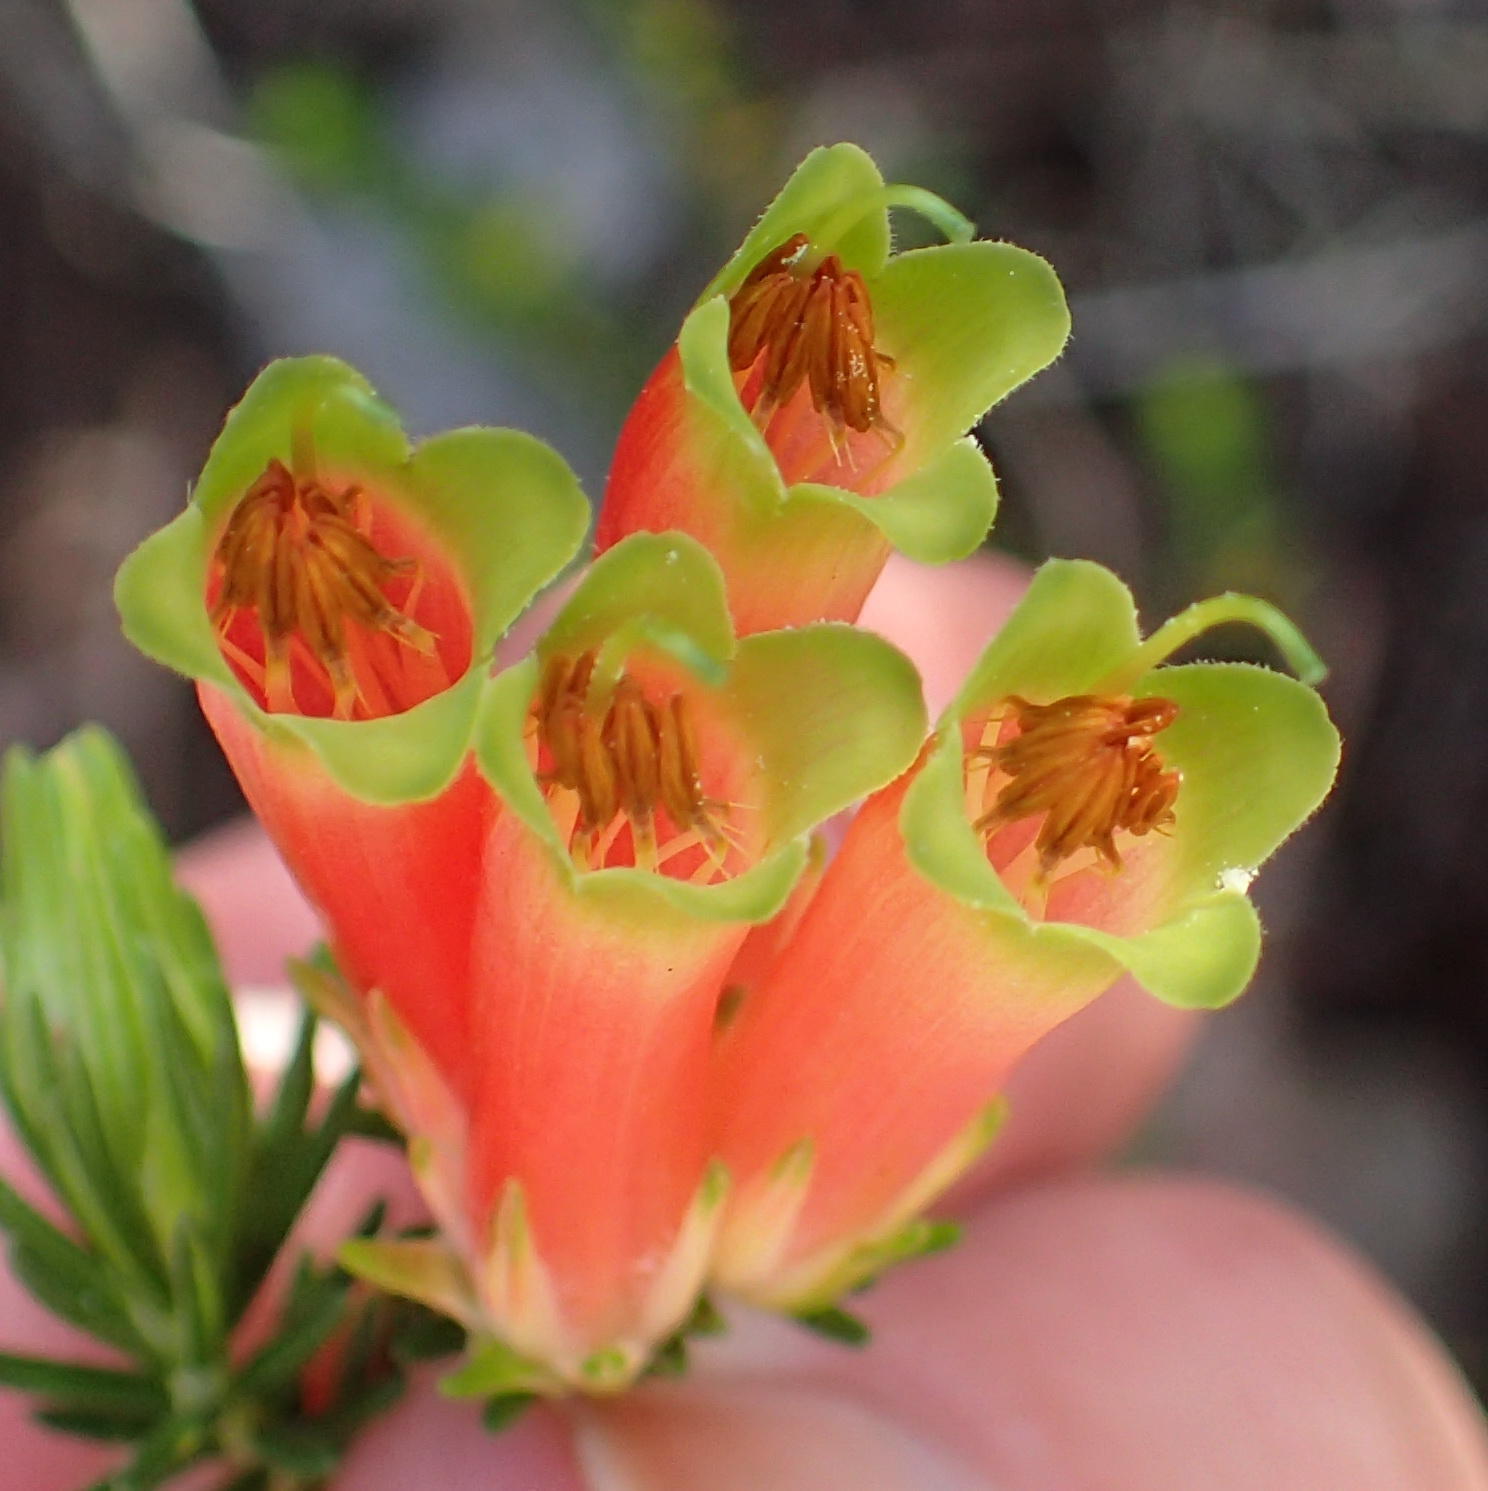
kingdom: Plantae
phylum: Tracheophyta
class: Magnoliopsida
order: Ericales
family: Ericaceae
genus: Erica
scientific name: Erica unicolor
